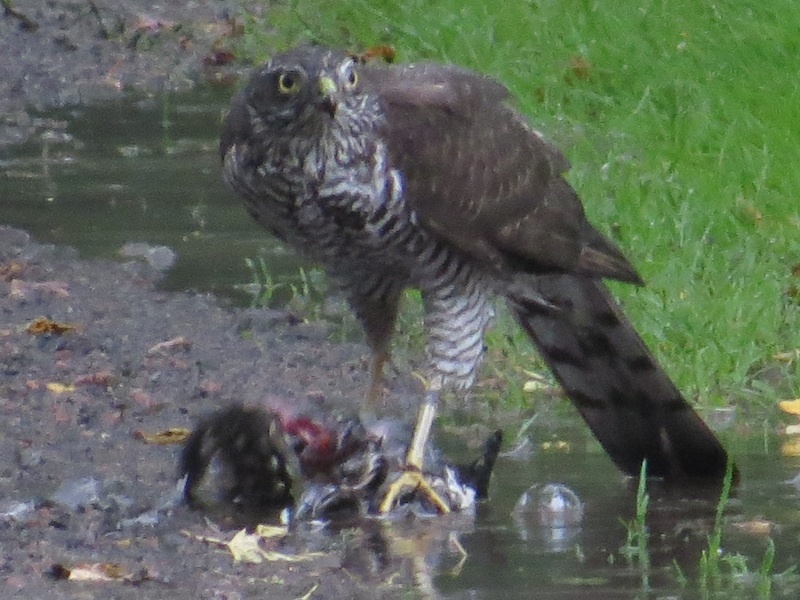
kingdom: Animalia
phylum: Chordata
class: Aves
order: Accipitriformes
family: Accipitridae
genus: Accipiter
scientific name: Accipiter nisus
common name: Eurasian sparrowhawk
